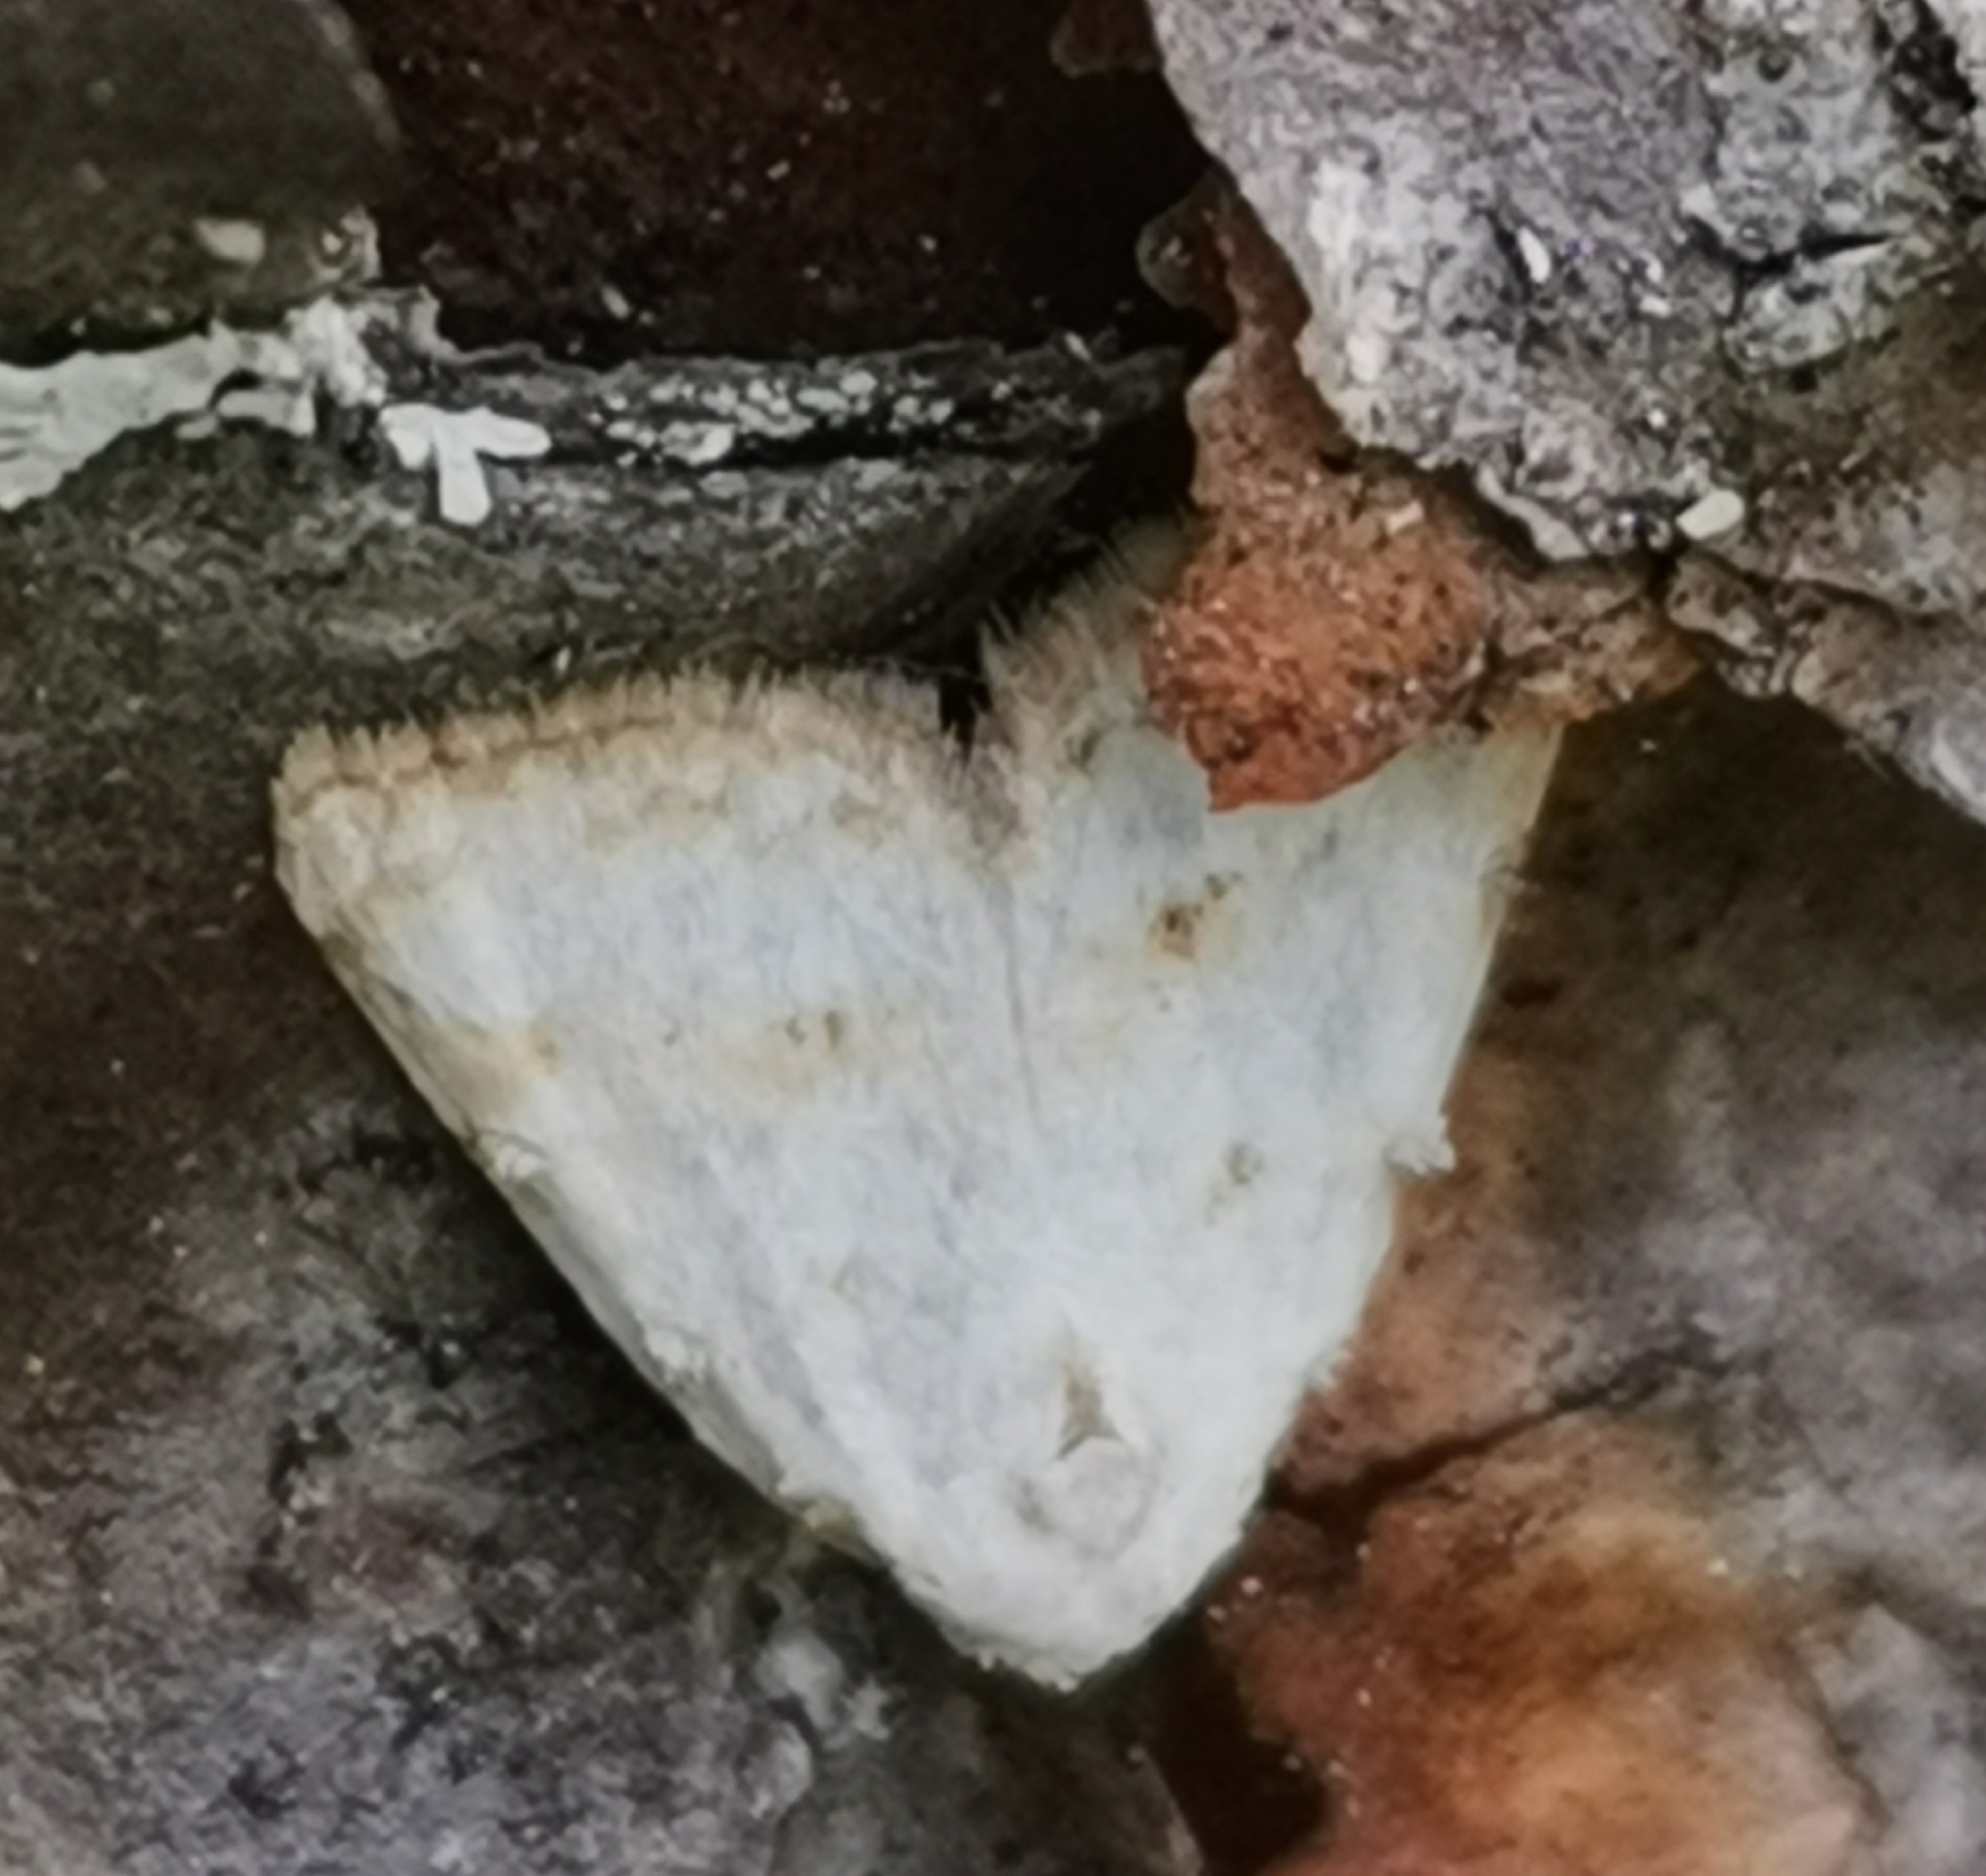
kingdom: Animalia
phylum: Arthropoda
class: Insecta
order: Lepidoptera
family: Nolidae
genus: Nola
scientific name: Nola aerugula
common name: Scarce black arches
